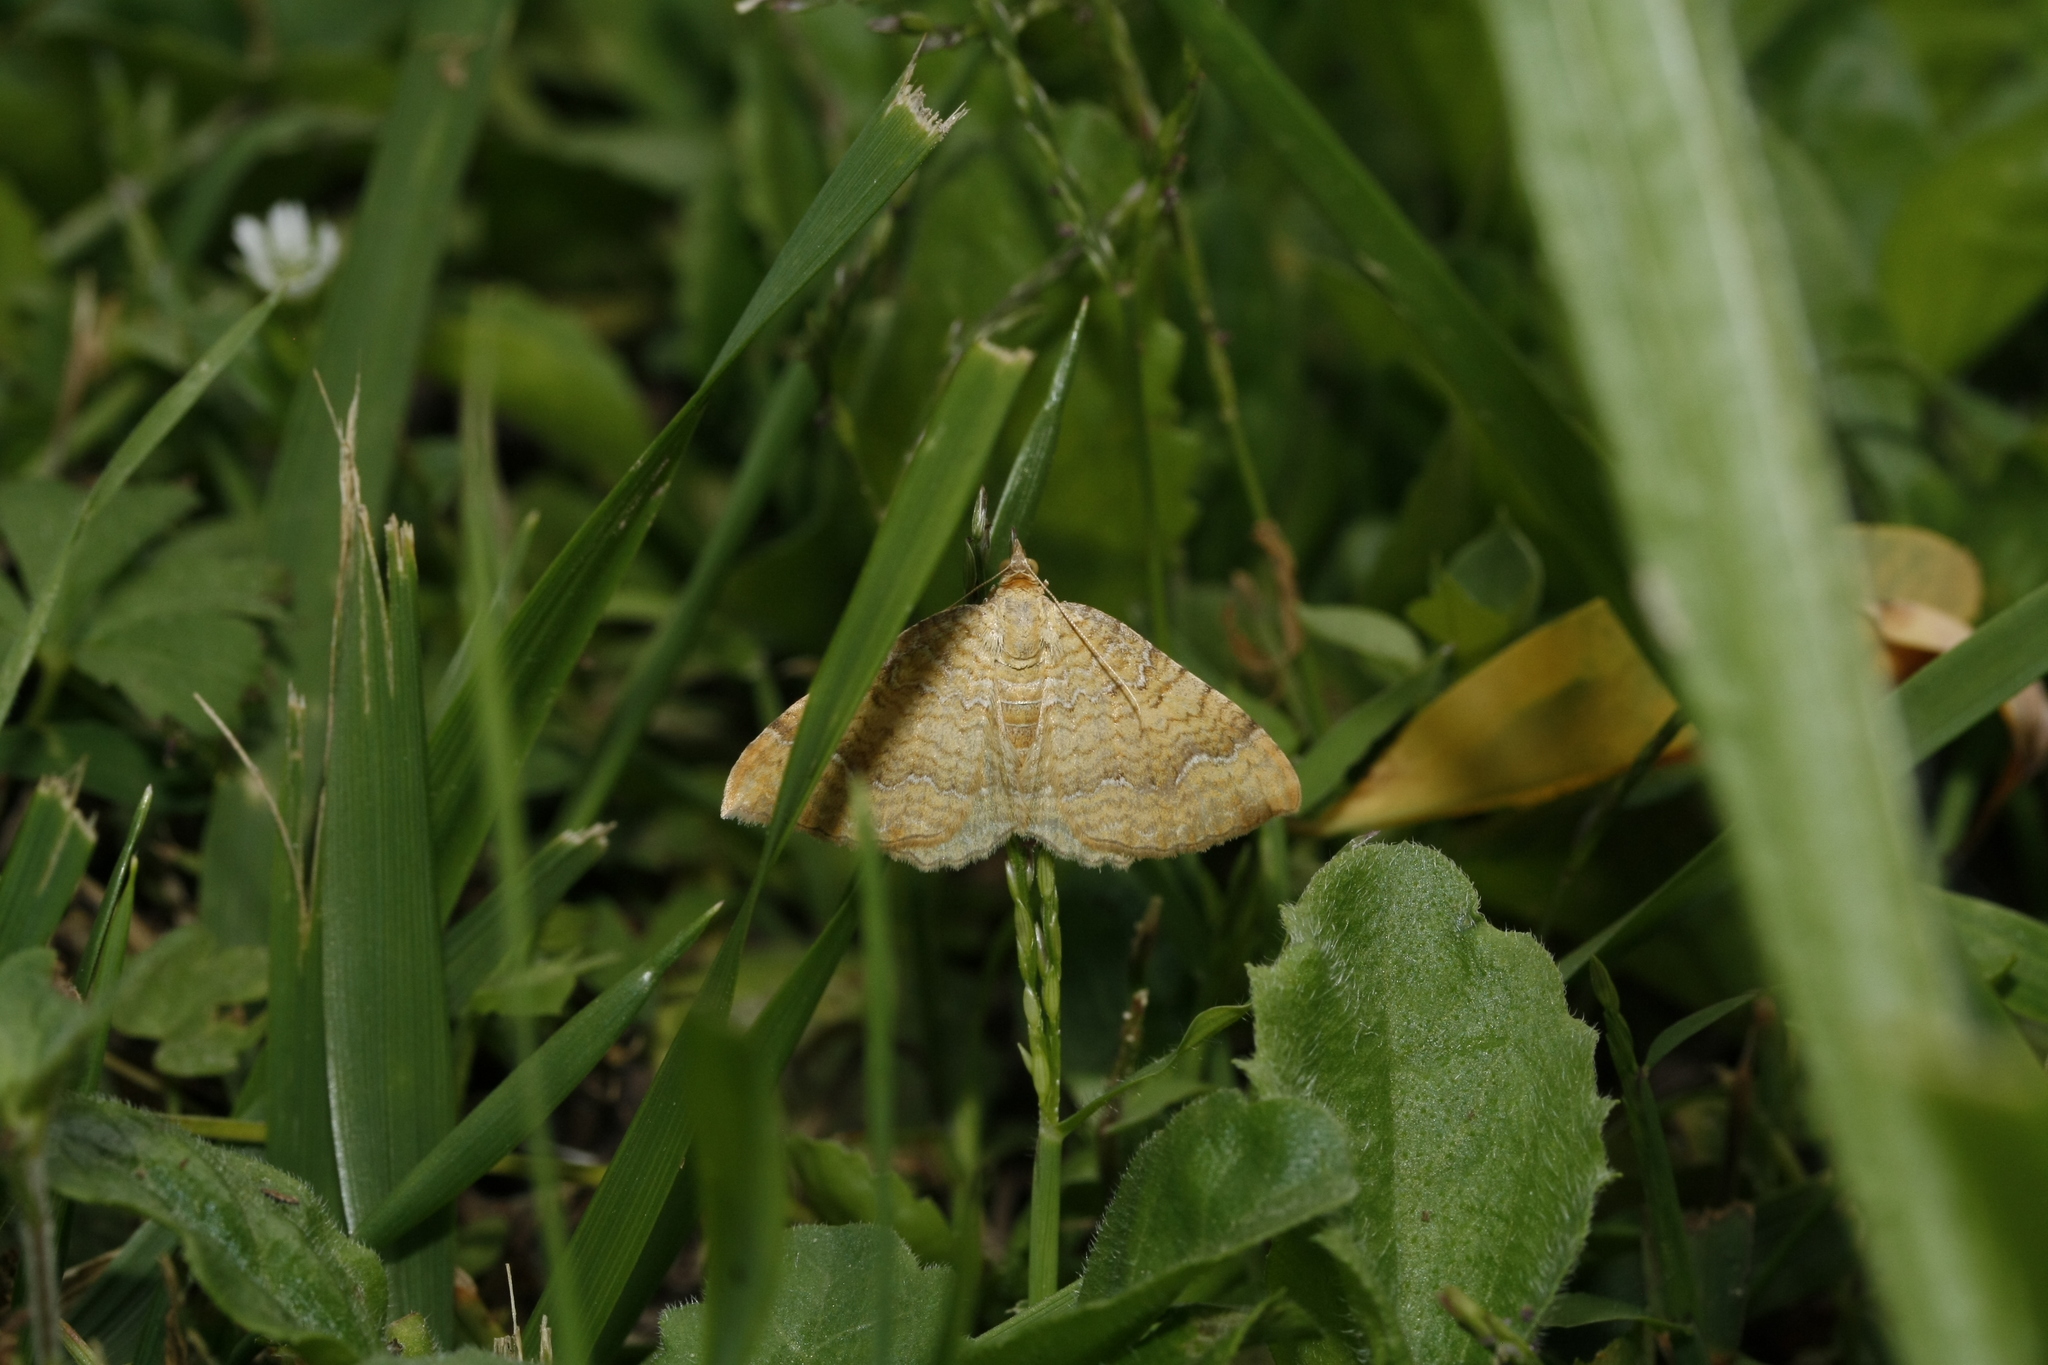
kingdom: Animalia
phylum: Arthropoda
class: Insecta
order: Lepidoptera
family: Geometridae
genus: Camptogramma
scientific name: Camptogramma bilineata
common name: Yellow shell
